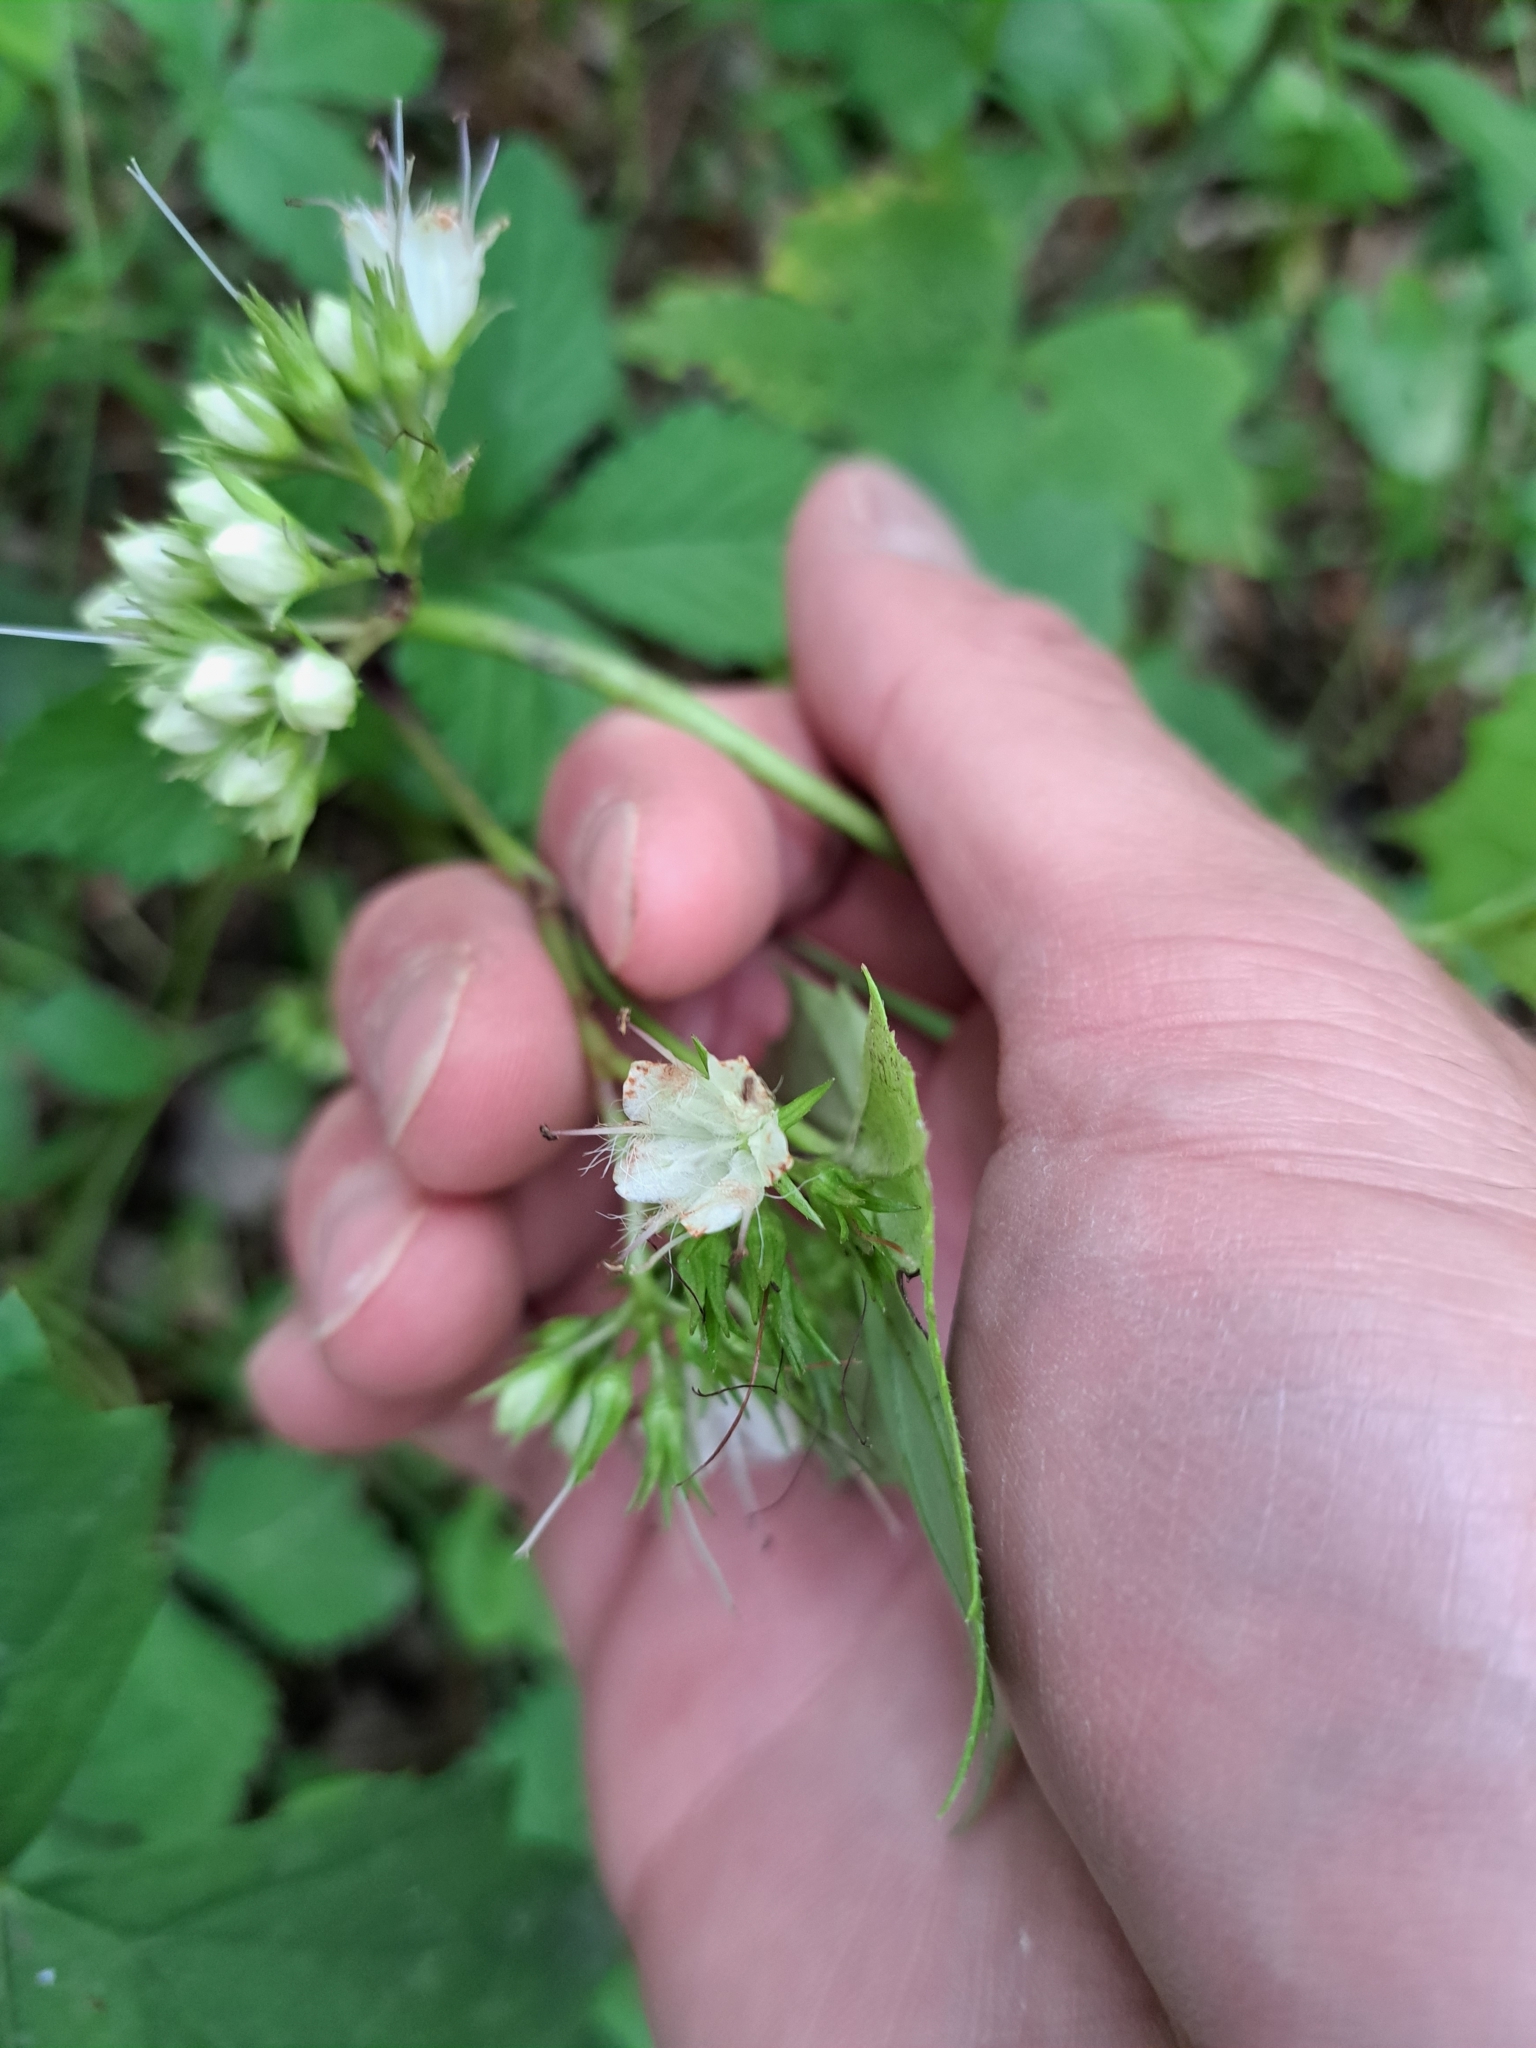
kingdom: Plantae
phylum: Tracheophyta
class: Magnoliopsida
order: Boraginales
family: Hydrophyllaceae
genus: Hydrophyllum
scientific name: Hydrophyllum canadense
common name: Canada waterleaf
